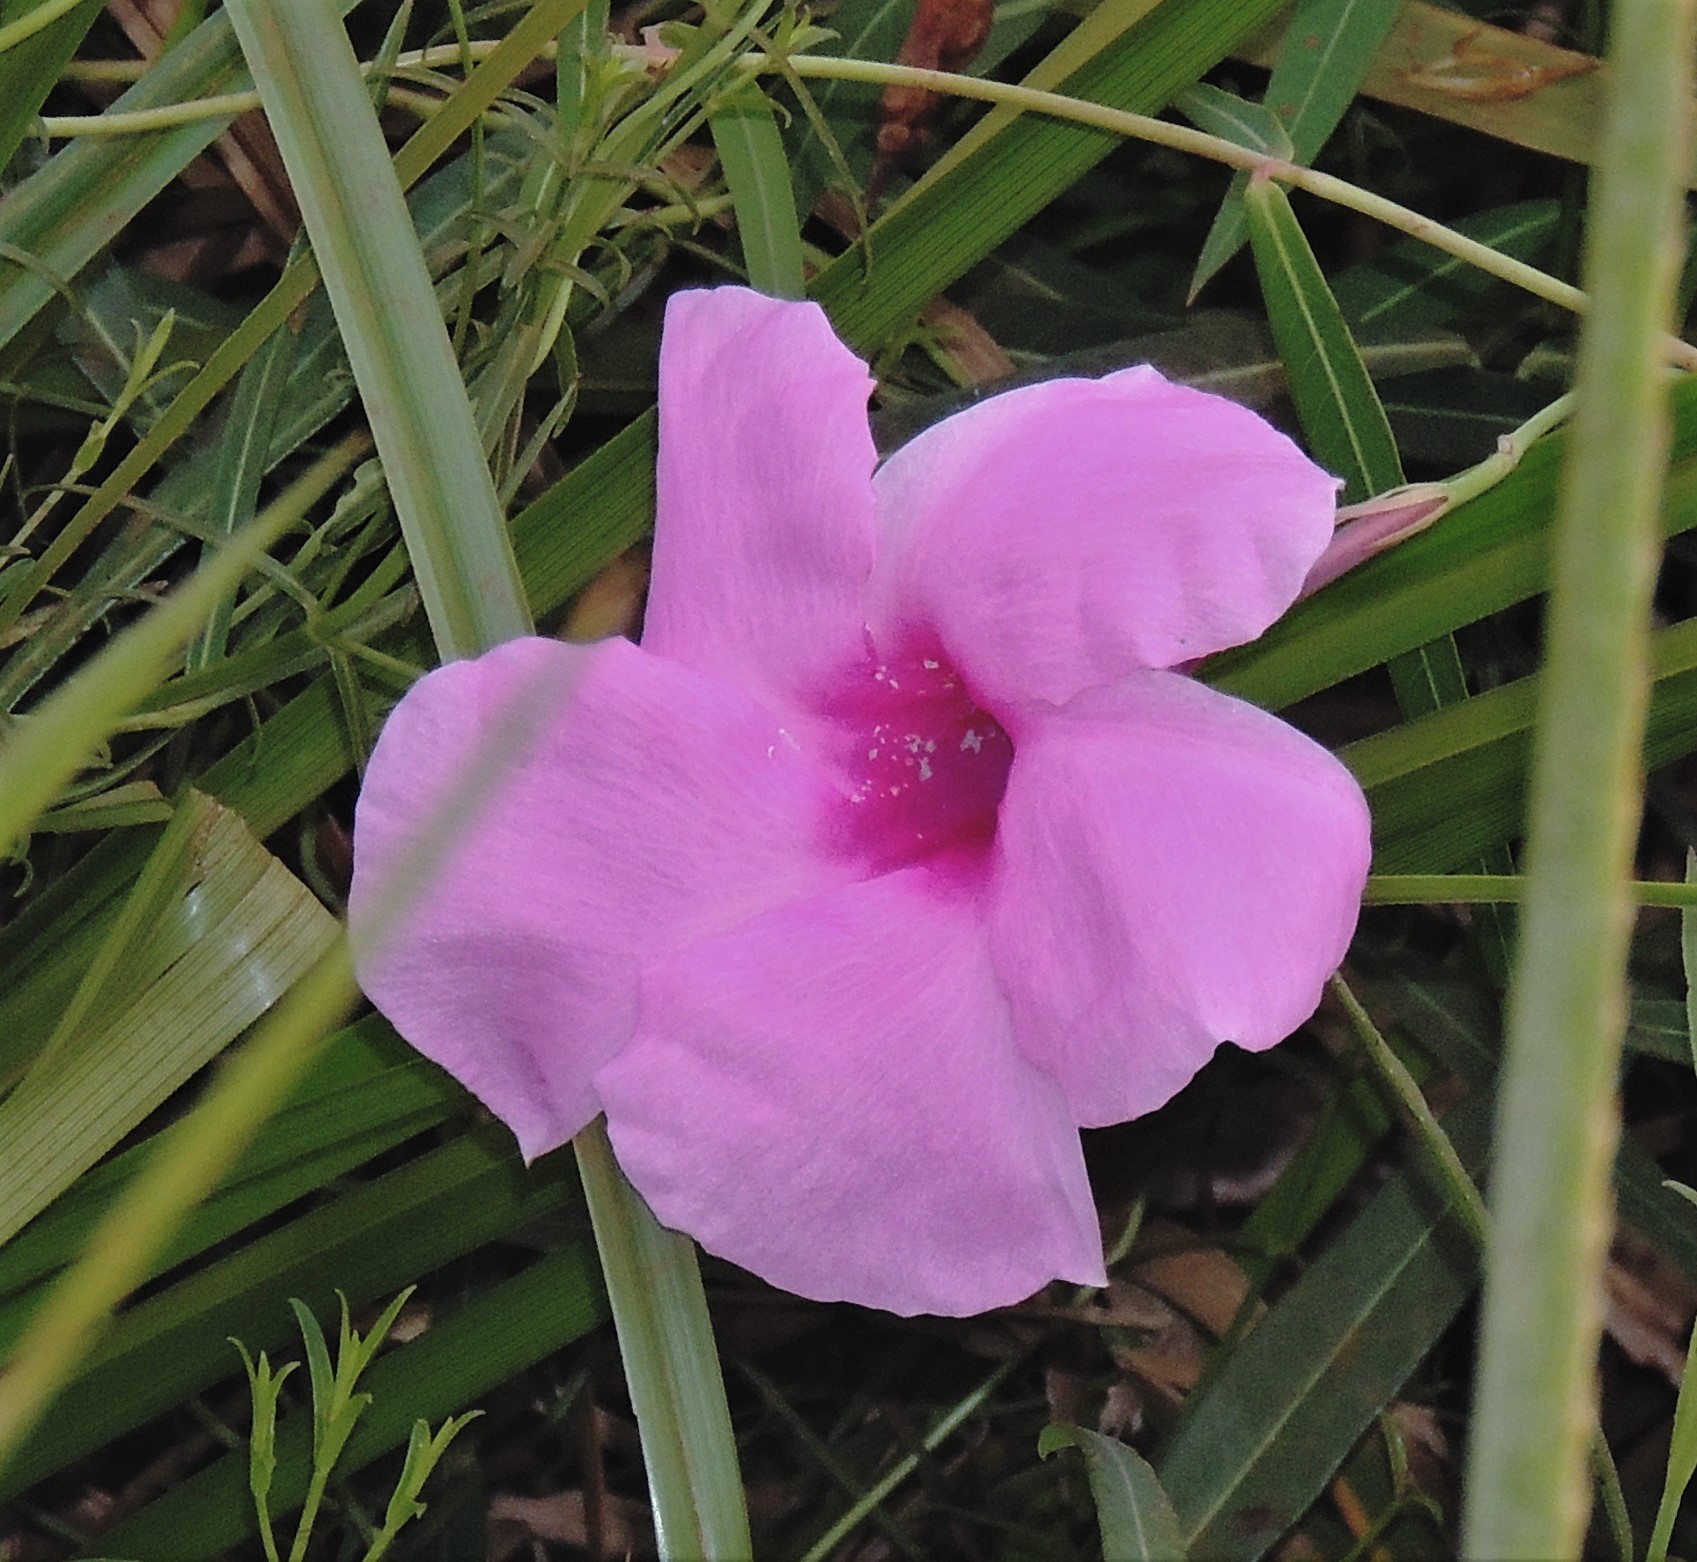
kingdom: Plantae
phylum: Tracheophyta
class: Magnoliopsida
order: Gentianales
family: Apocynaceae
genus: Rhabdadenia
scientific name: Rhabdadenia ragonesei
